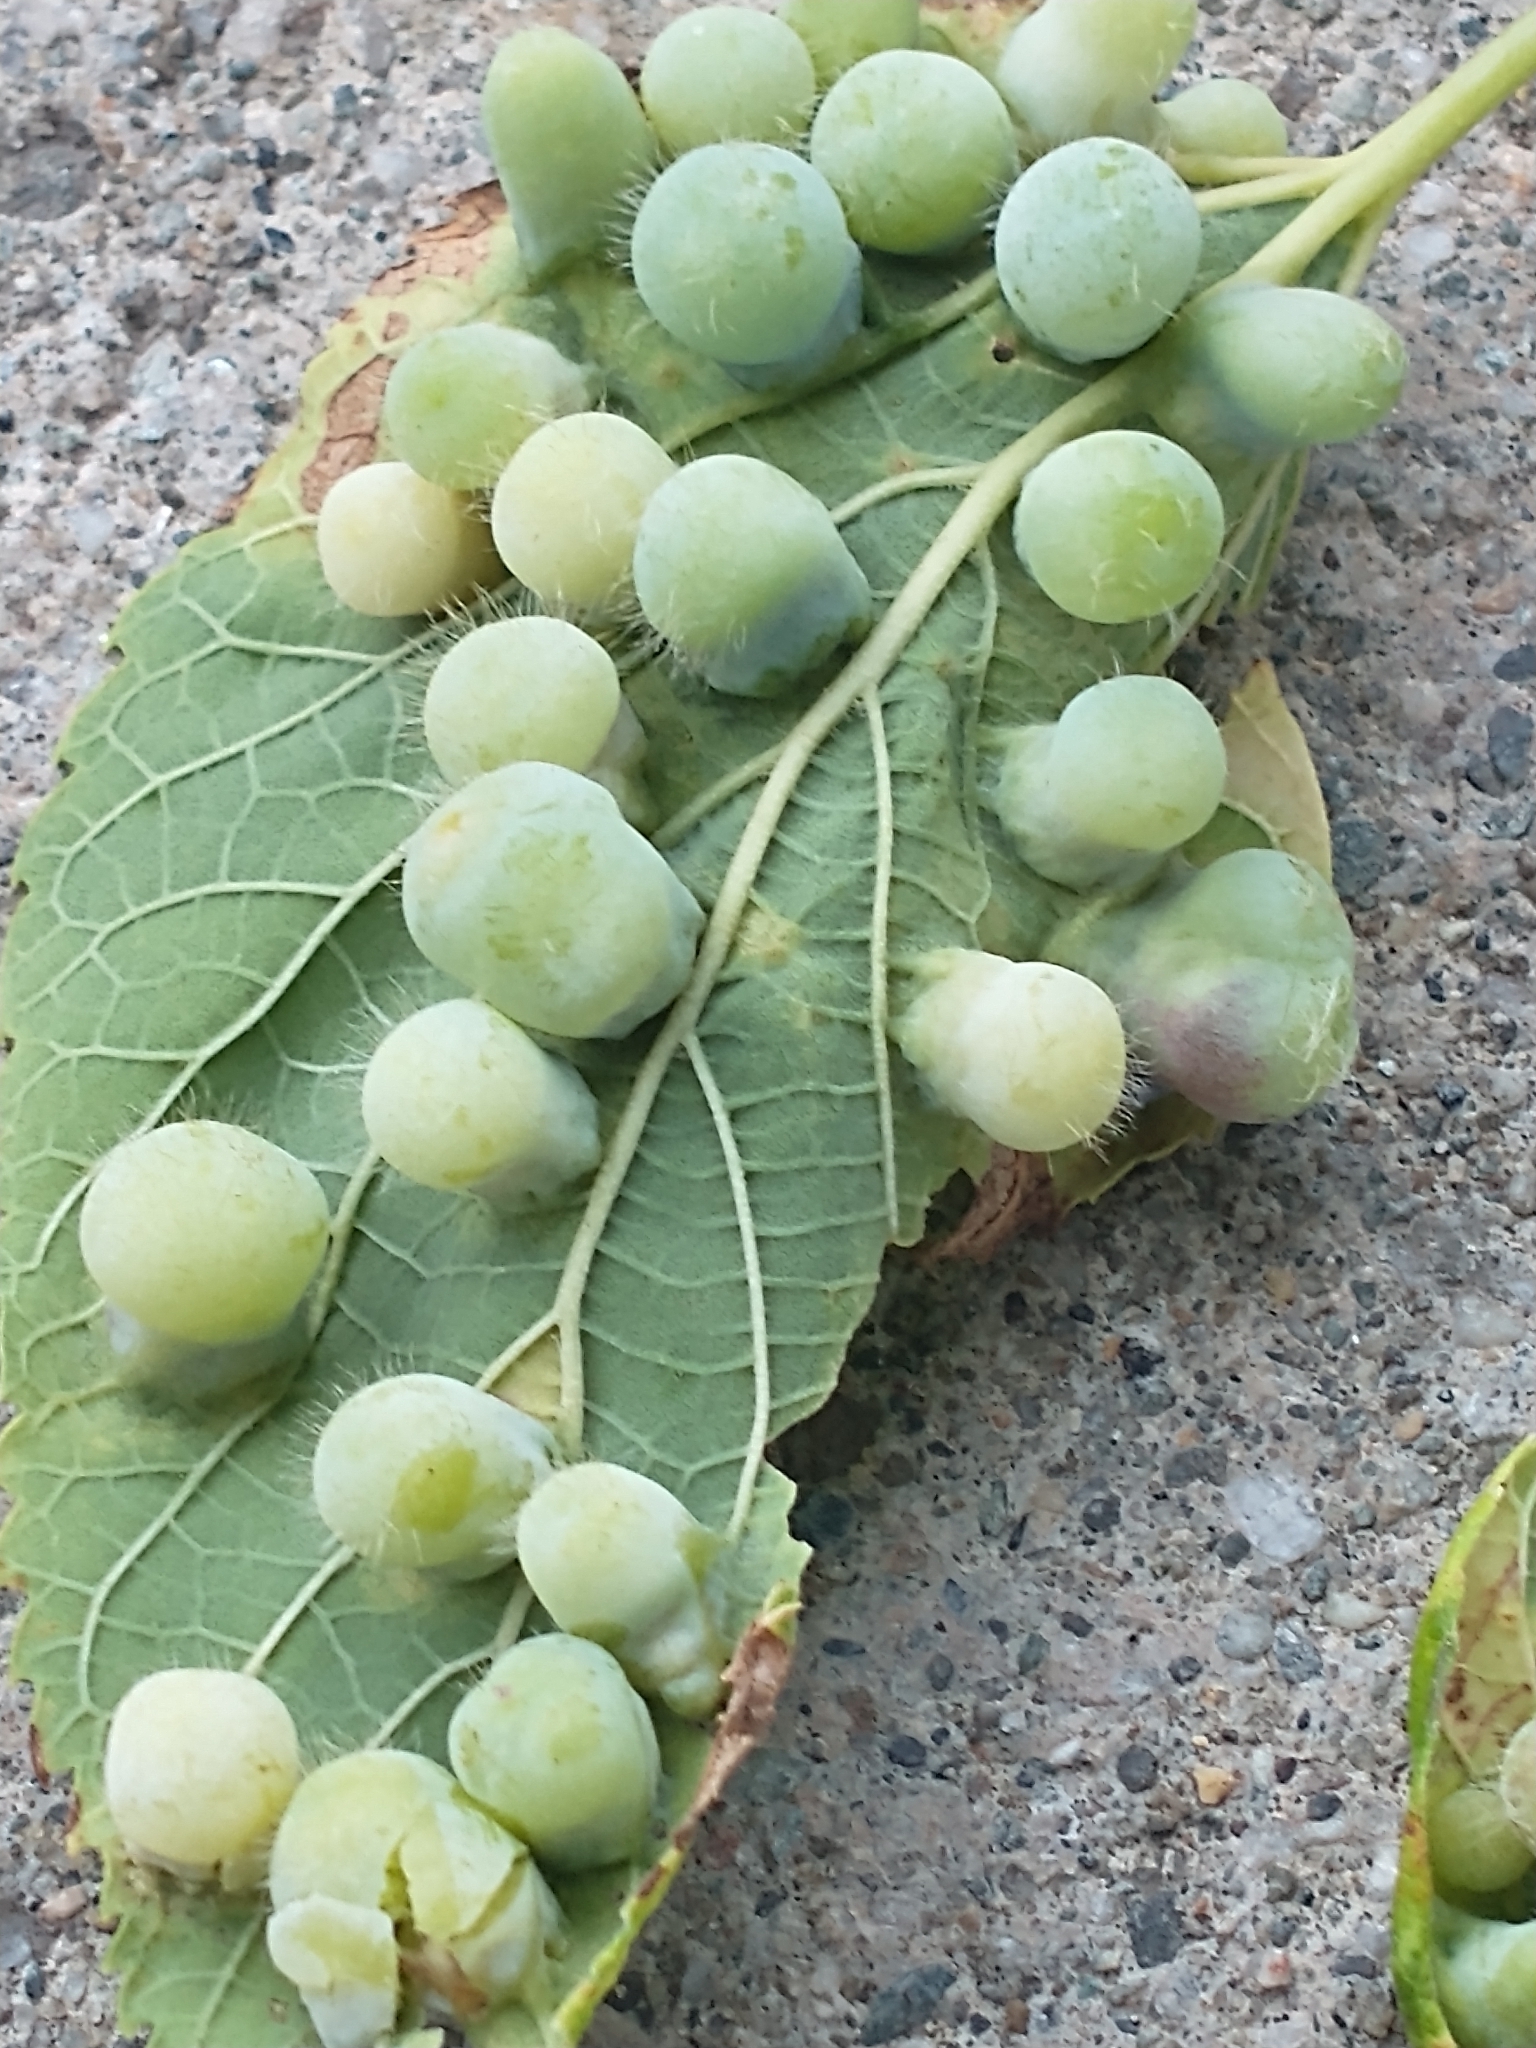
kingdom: Animalia
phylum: Arthropoda
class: Insecta
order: Hemiptera
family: Aphalaridae
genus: Pachypsylla
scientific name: Pachypsylla celtidismamma
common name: Hackberry nipplegall psyllid
